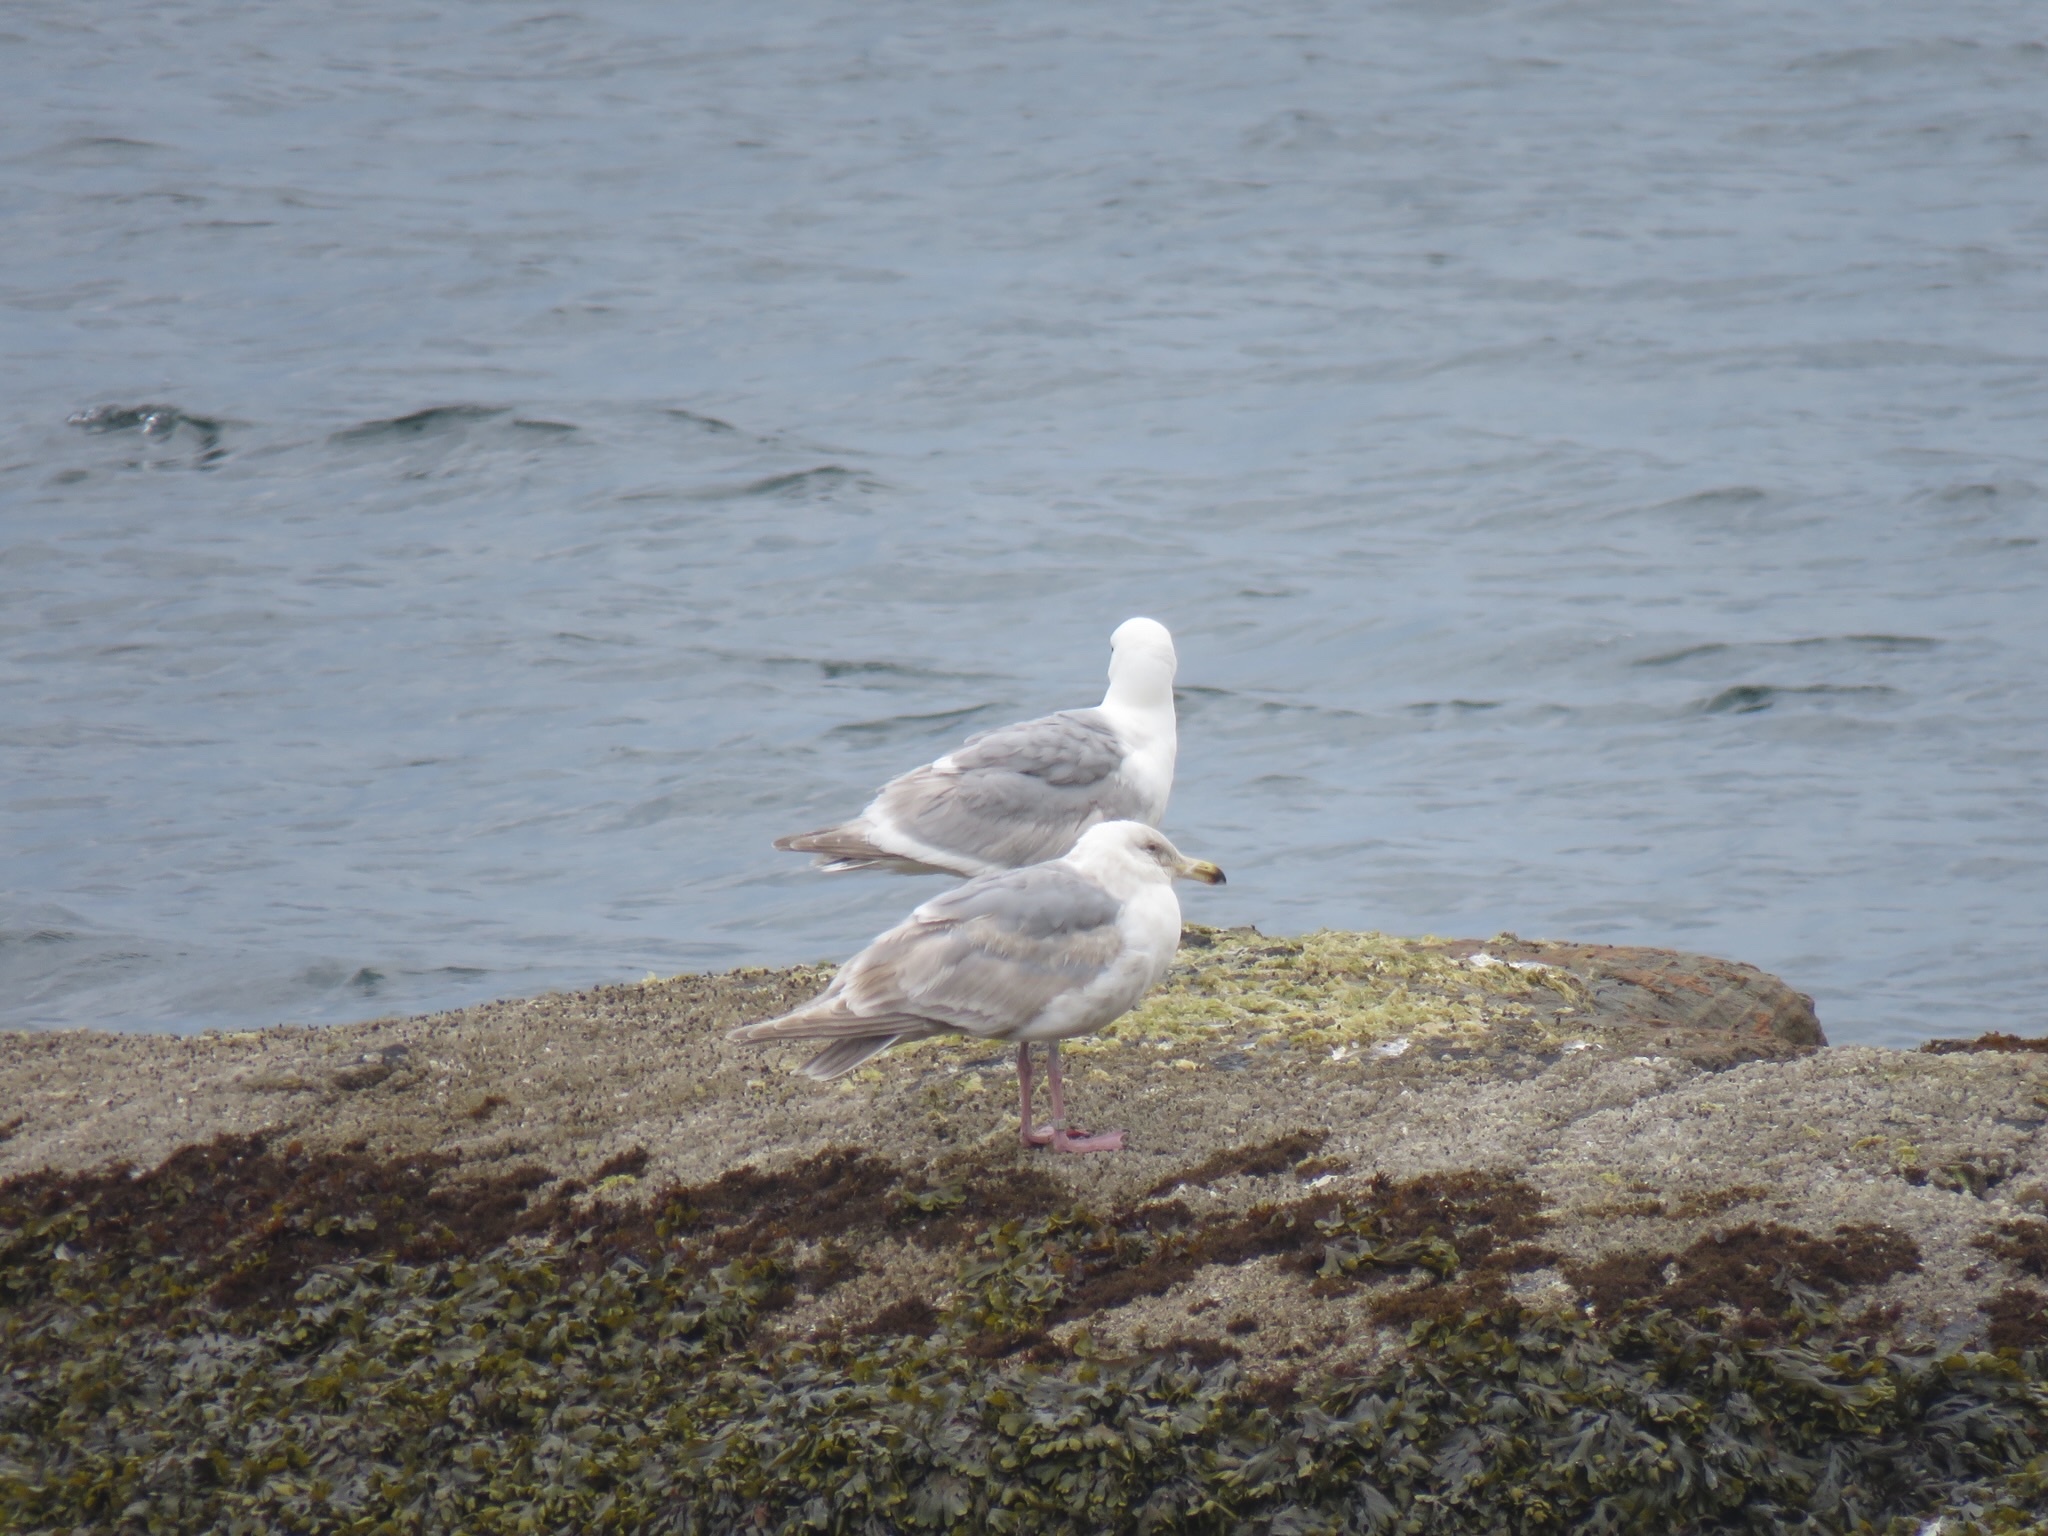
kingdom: Animalia
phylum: Chordata
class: Aves
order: Charadriiformes
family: Laridae
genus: Larus
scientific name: Larus glaucescens
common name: Glaucous-winged gull
